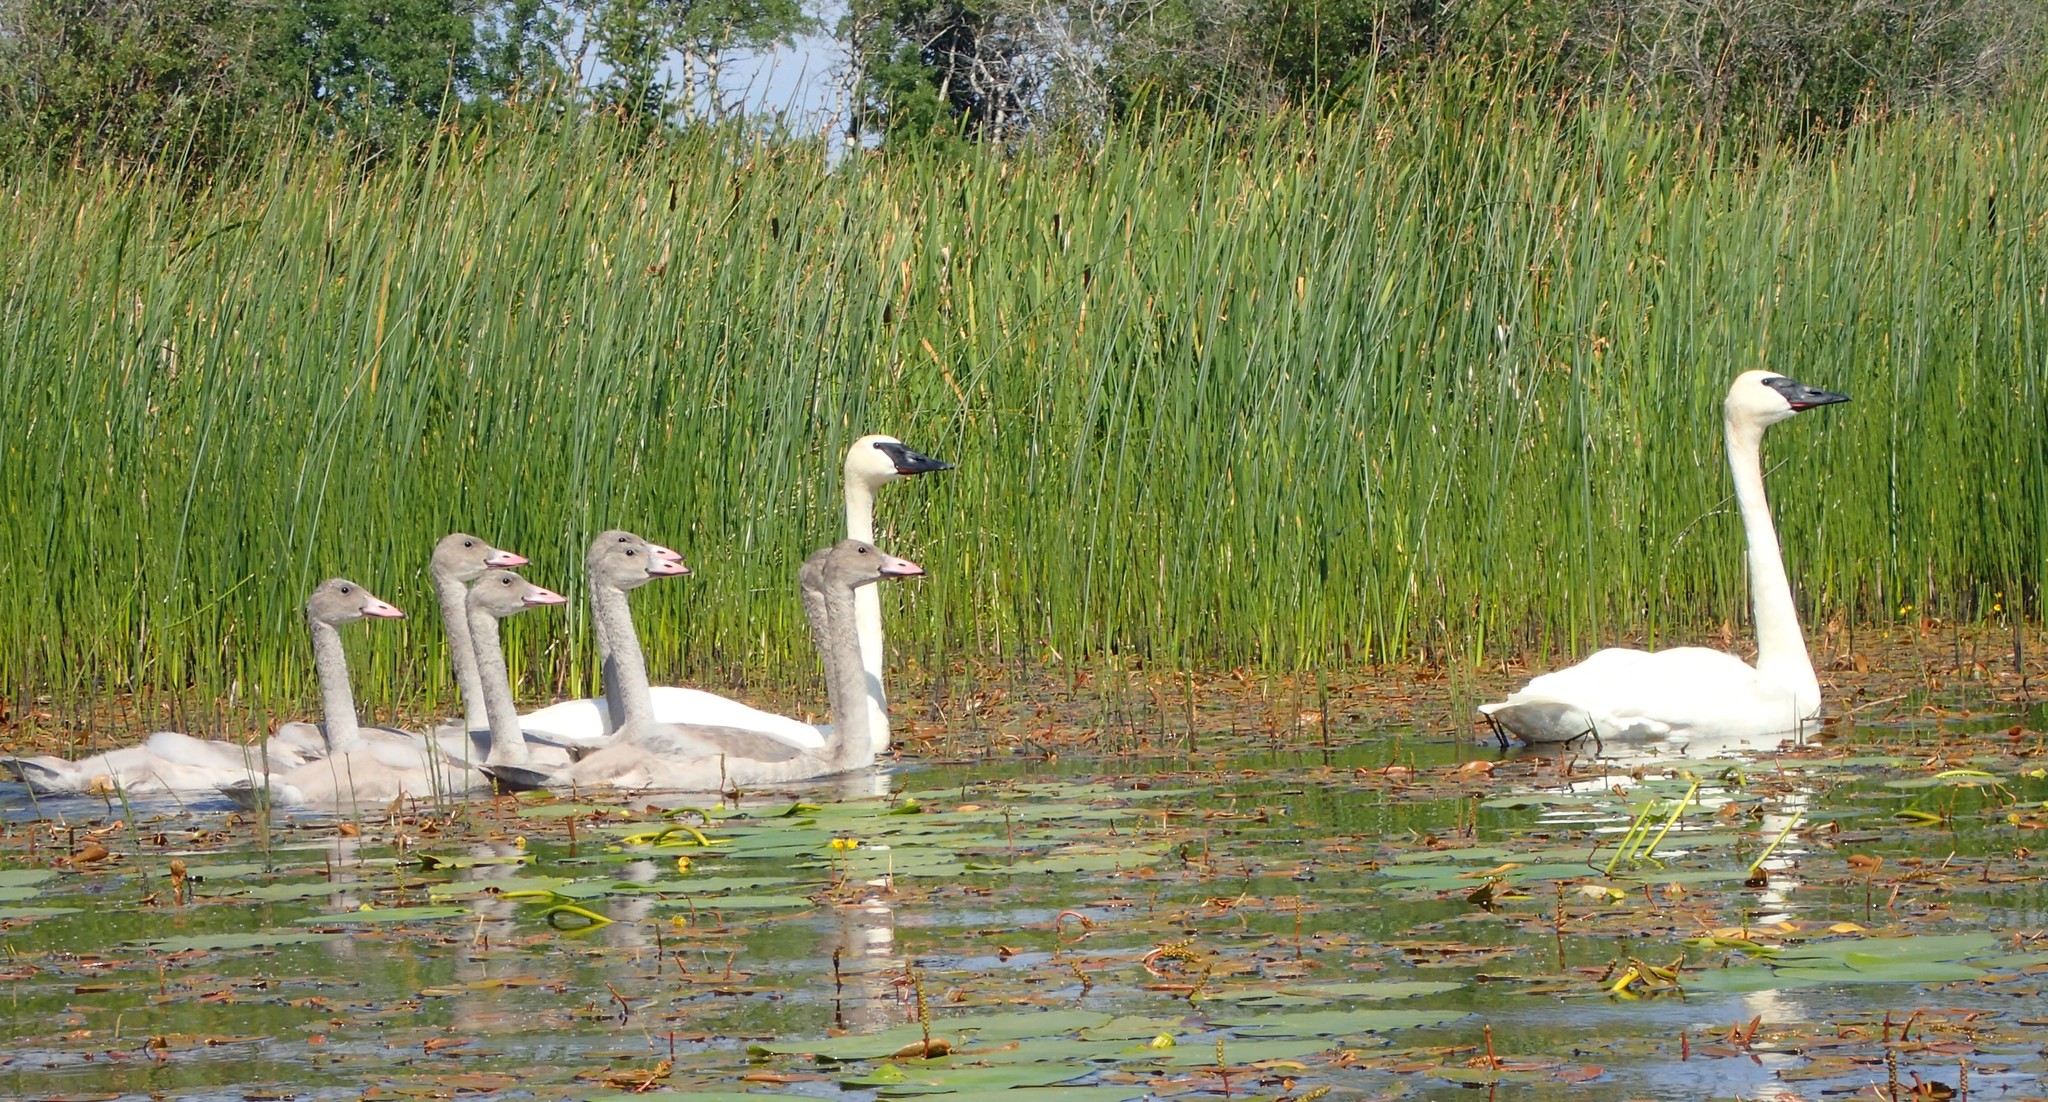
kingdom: Animalia
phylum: Chordata
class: Aves
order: Anseriformes
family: Anatidae
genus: Cygnus
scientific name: Cygnus buccinator
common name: Trumpeter swan
